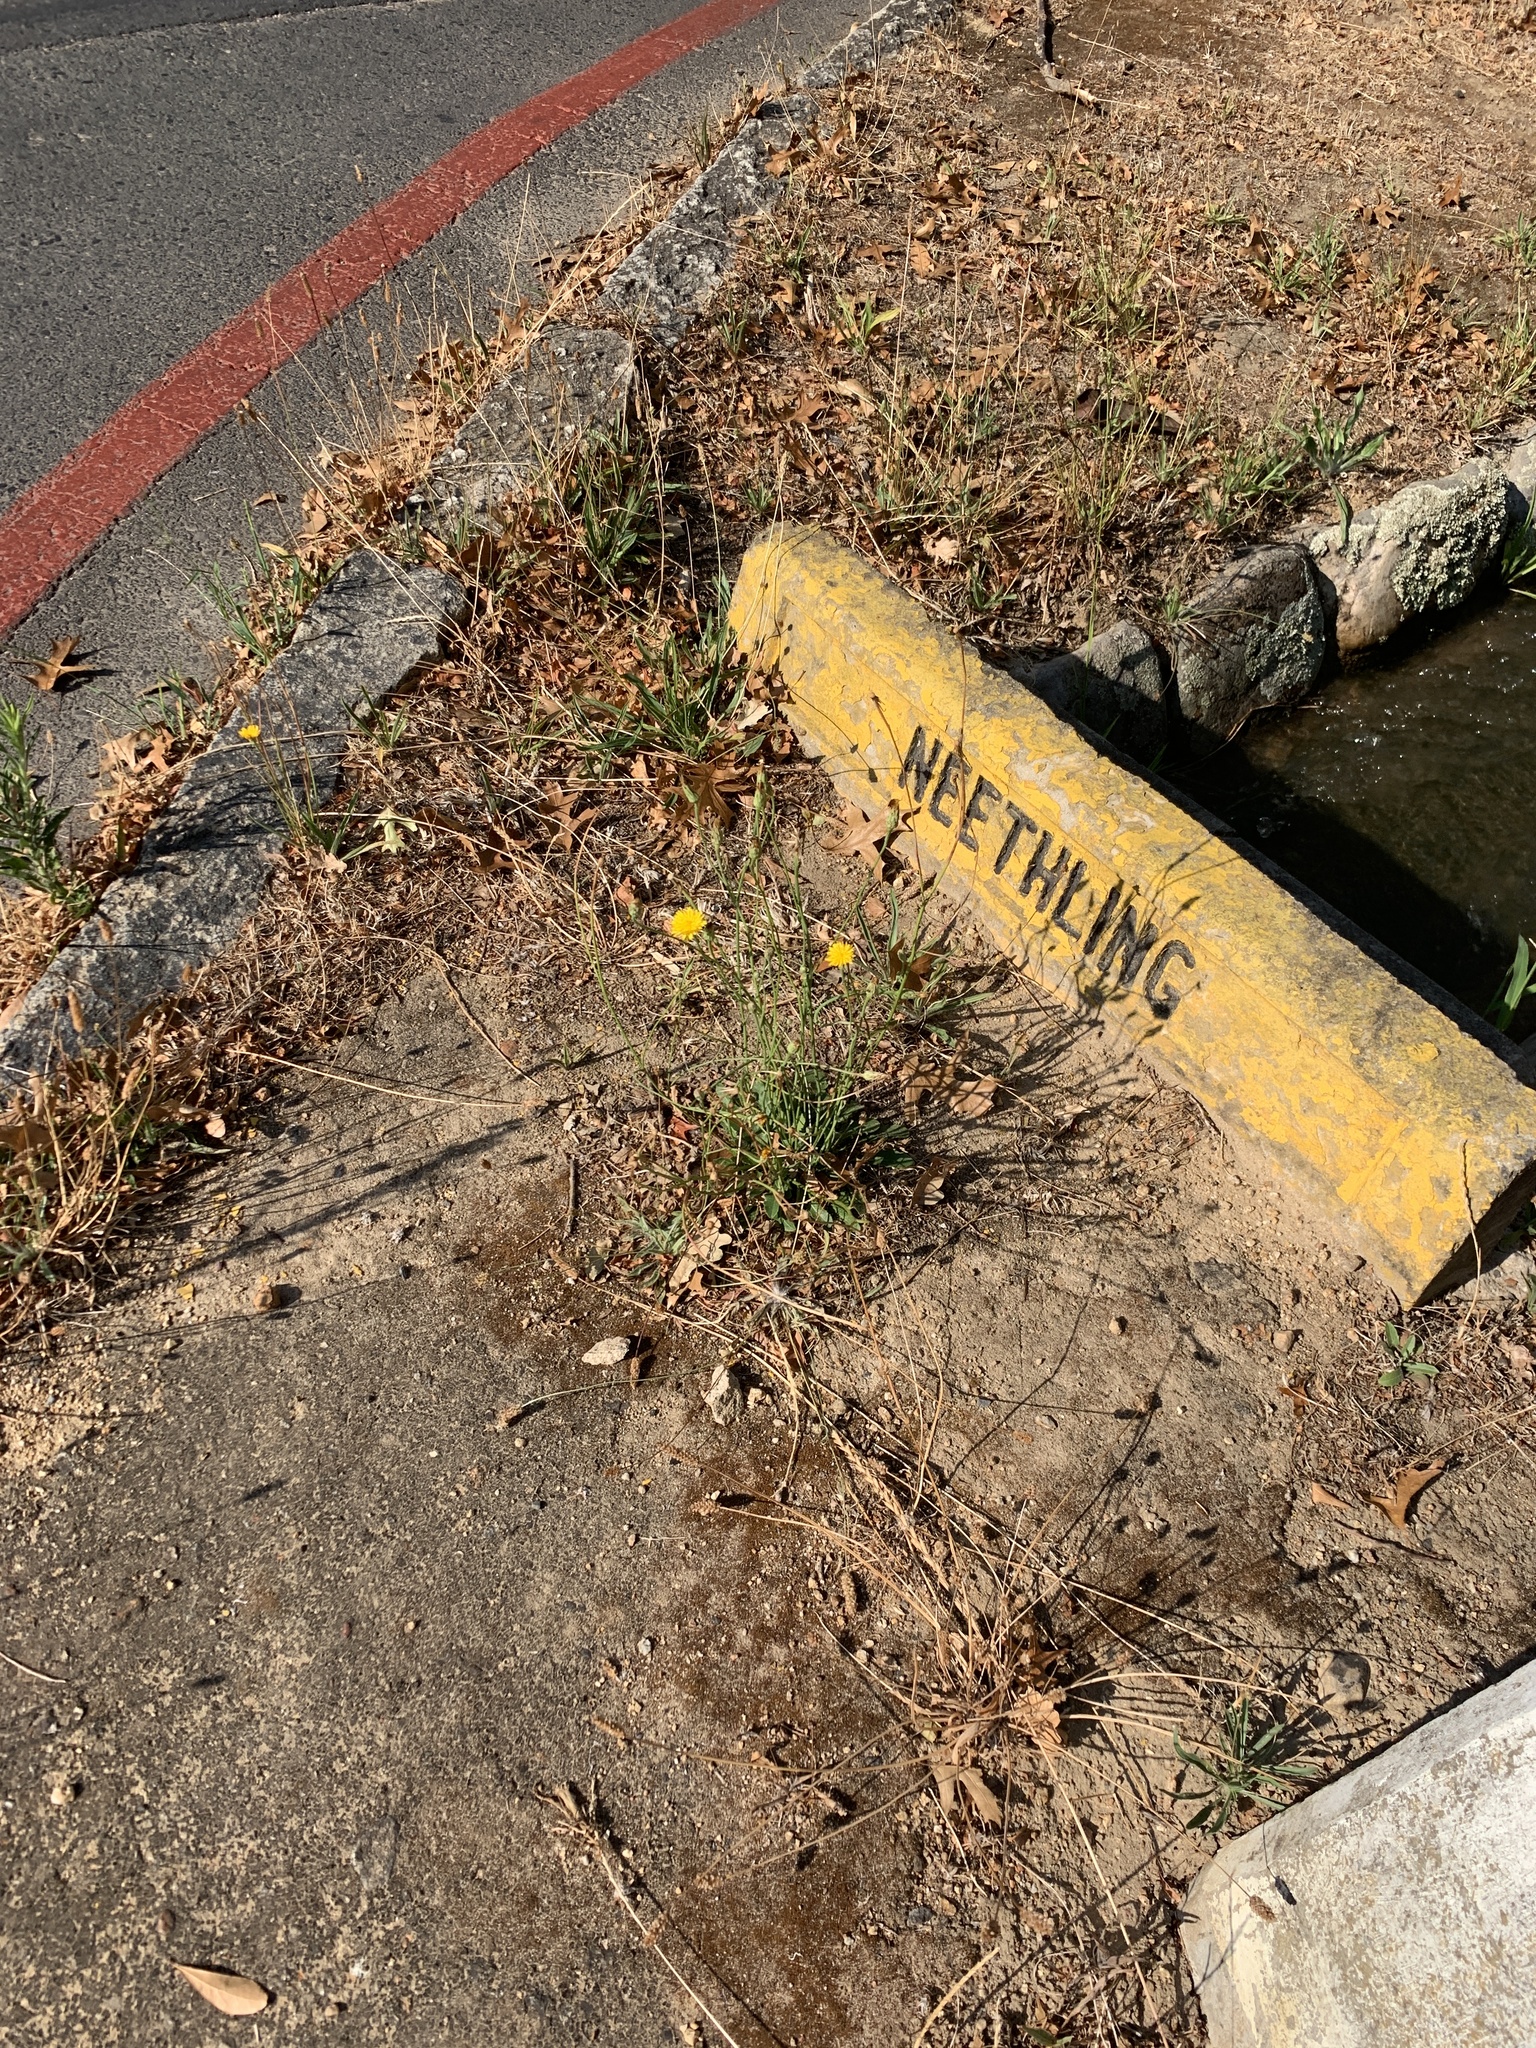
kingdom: Plantae
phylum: Tracheophyta
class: Magnoliopsida
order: Asterales
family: Asteraceae
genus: Hypochaeris
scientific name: Hypochaeris radicata
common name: Flatweed
